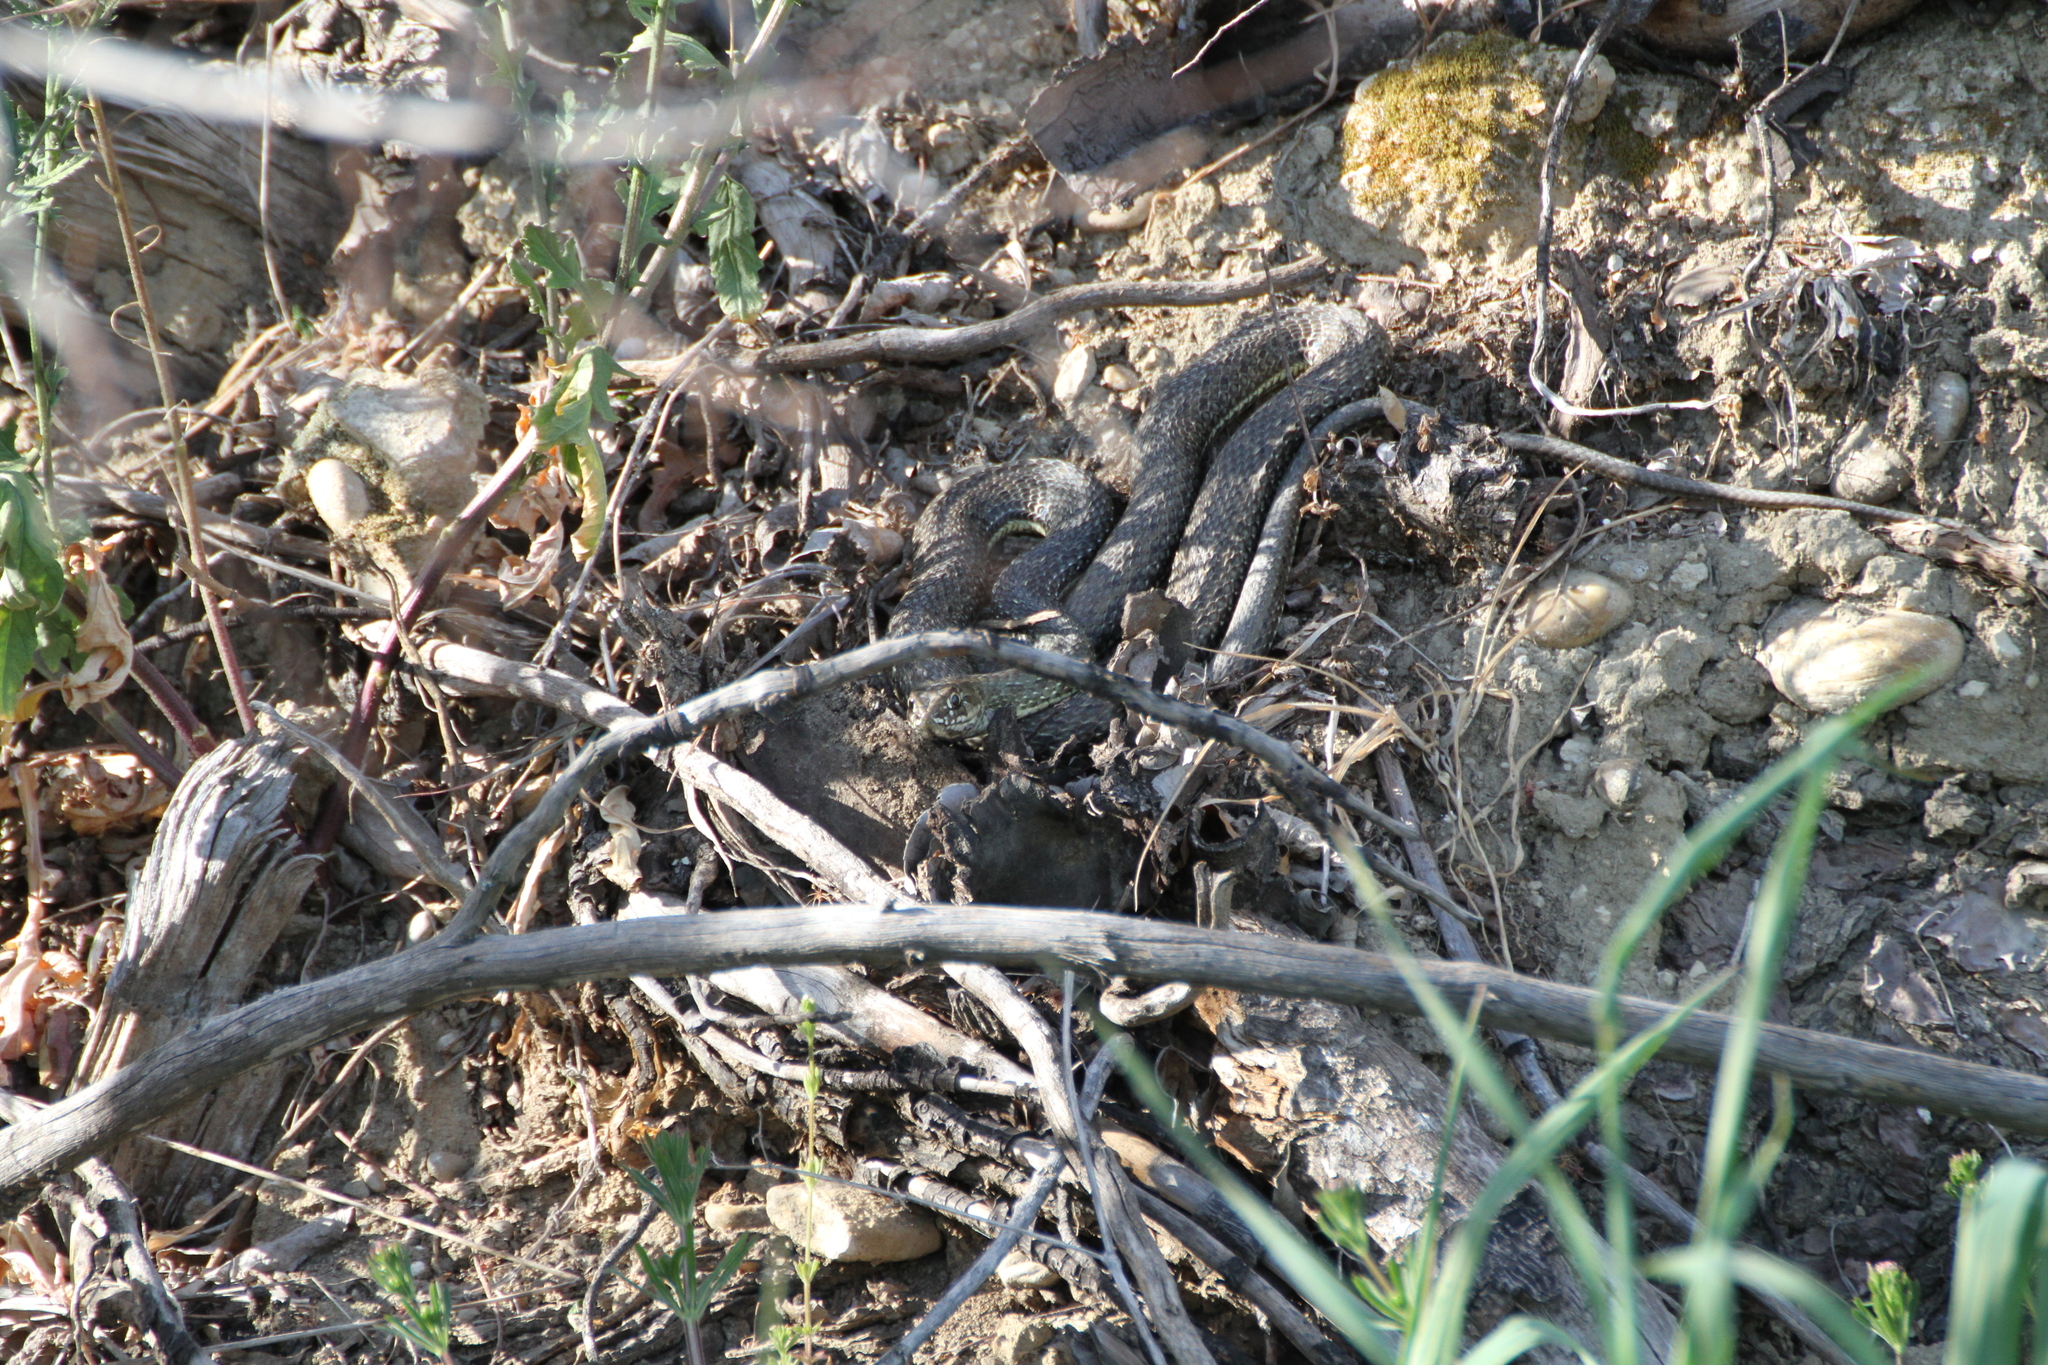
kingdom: Animalia
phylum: Chordata
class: Squamata
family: Psammophiidae
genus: Malpolon
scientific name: Malpolon monspessulanus
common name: Montpellier snake
